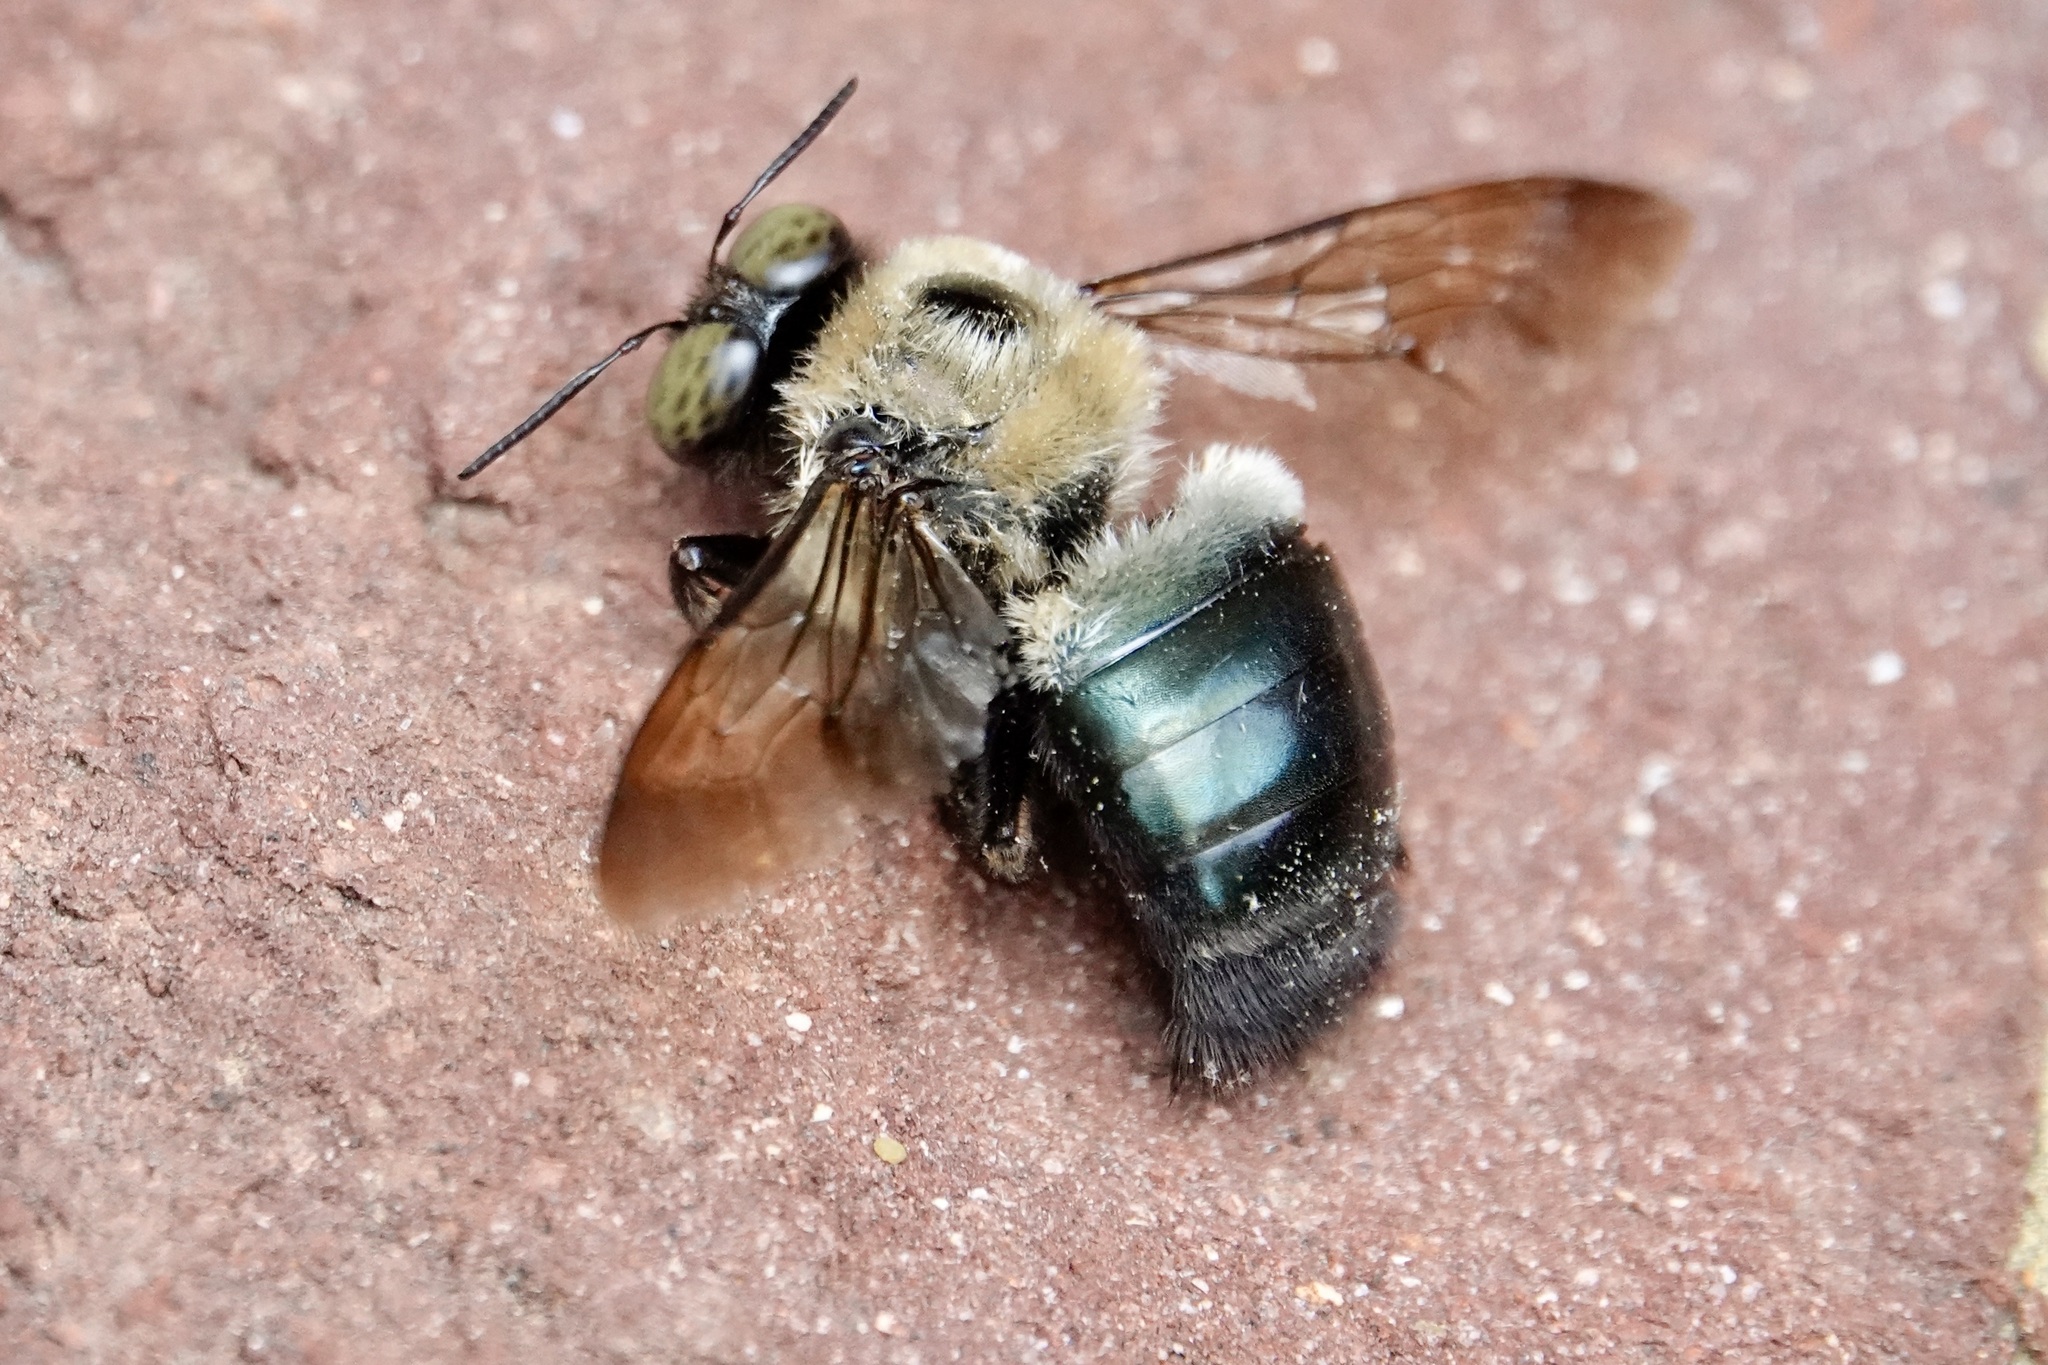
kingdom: Animalia
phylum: Arthropoda
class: Insecta
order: Hymenoptera
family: Apidae
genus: Xylocopa
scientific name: Xylocopa virginica
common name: Carpenter bee
